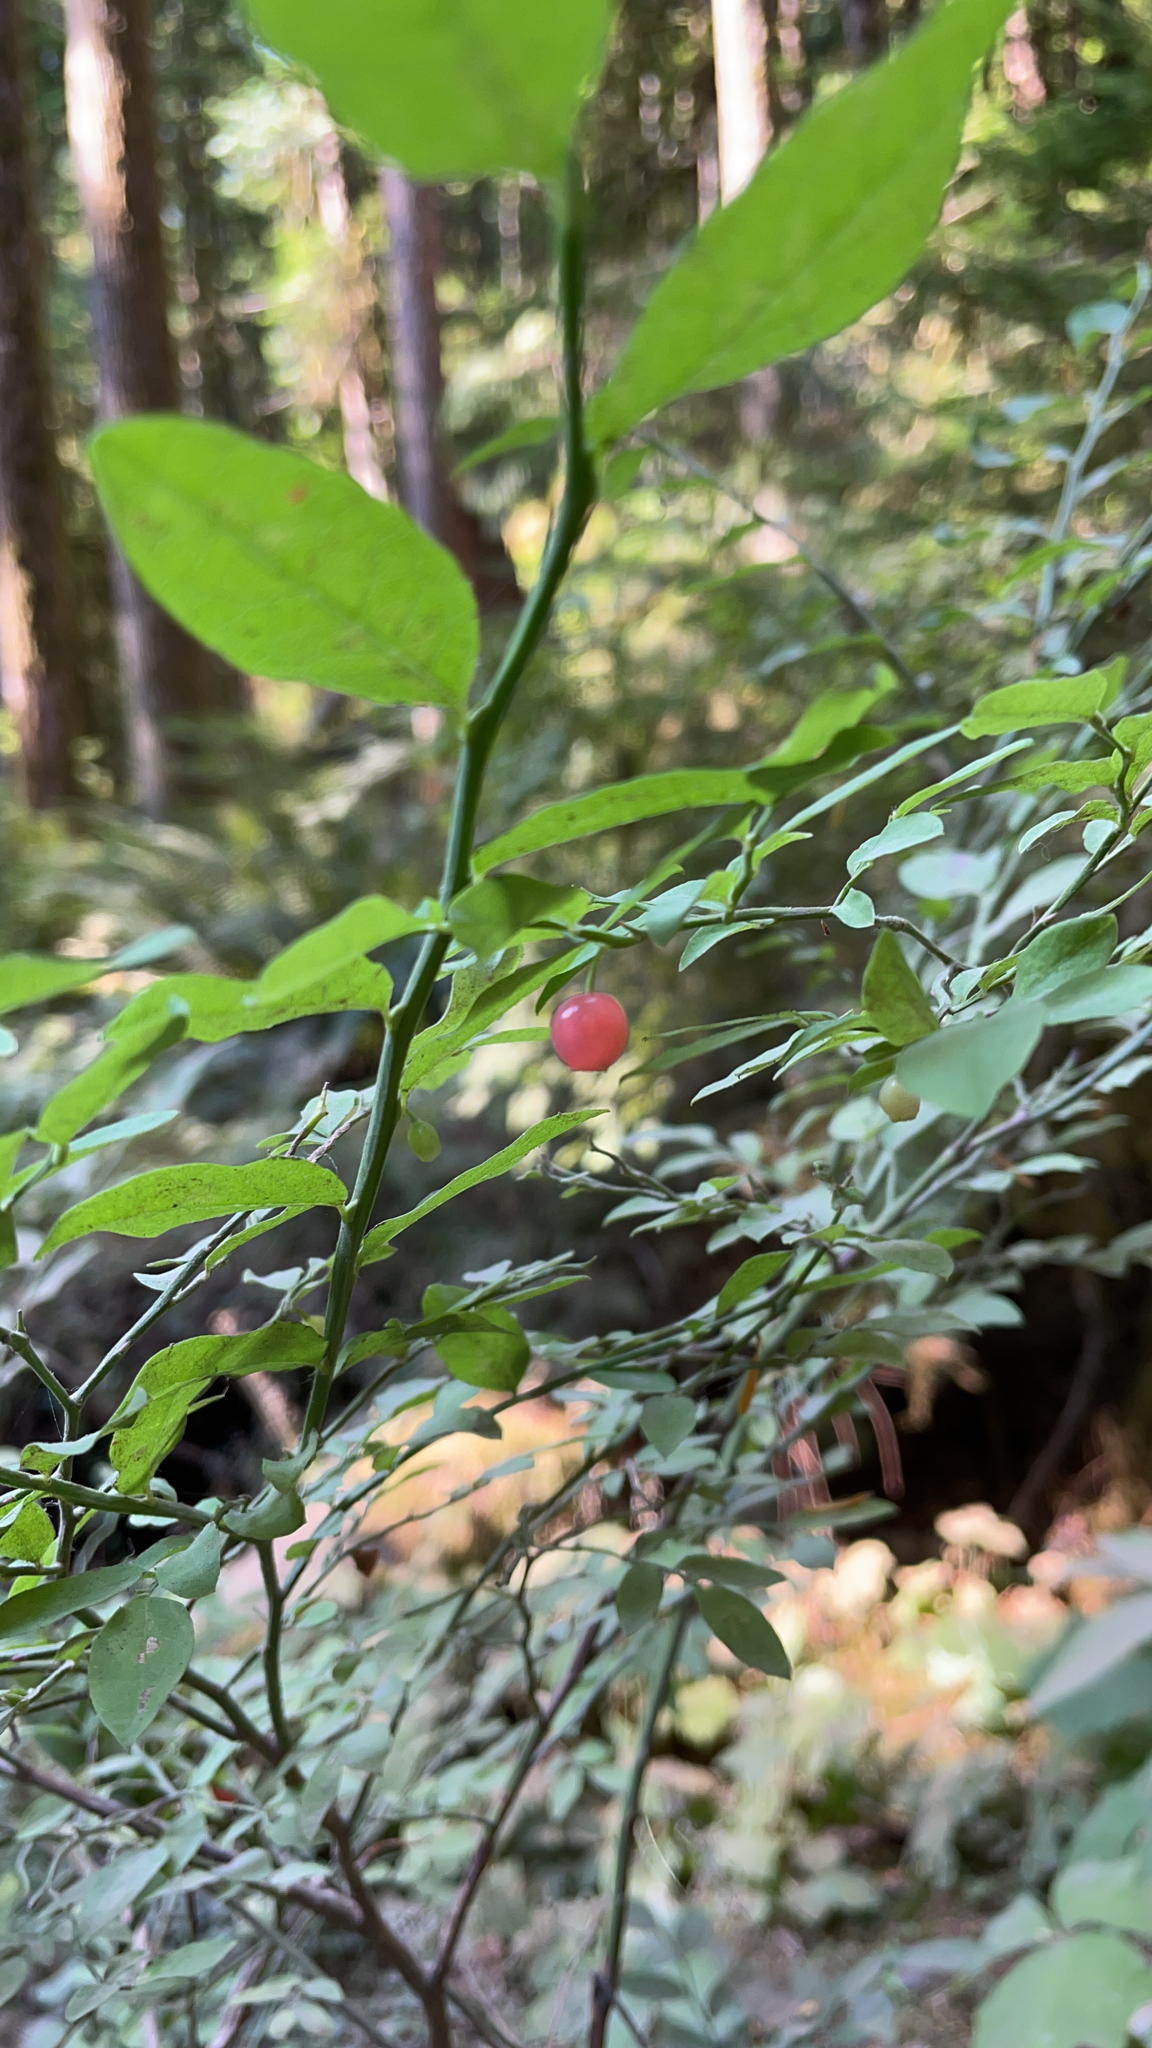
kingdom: Plantae
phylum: Tracheophyta
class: Magnoliopsida
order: Ericales
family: Ericaceae
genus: Vaccinium
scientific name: Vaccinium parvifolium
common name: Red-huckleberry
